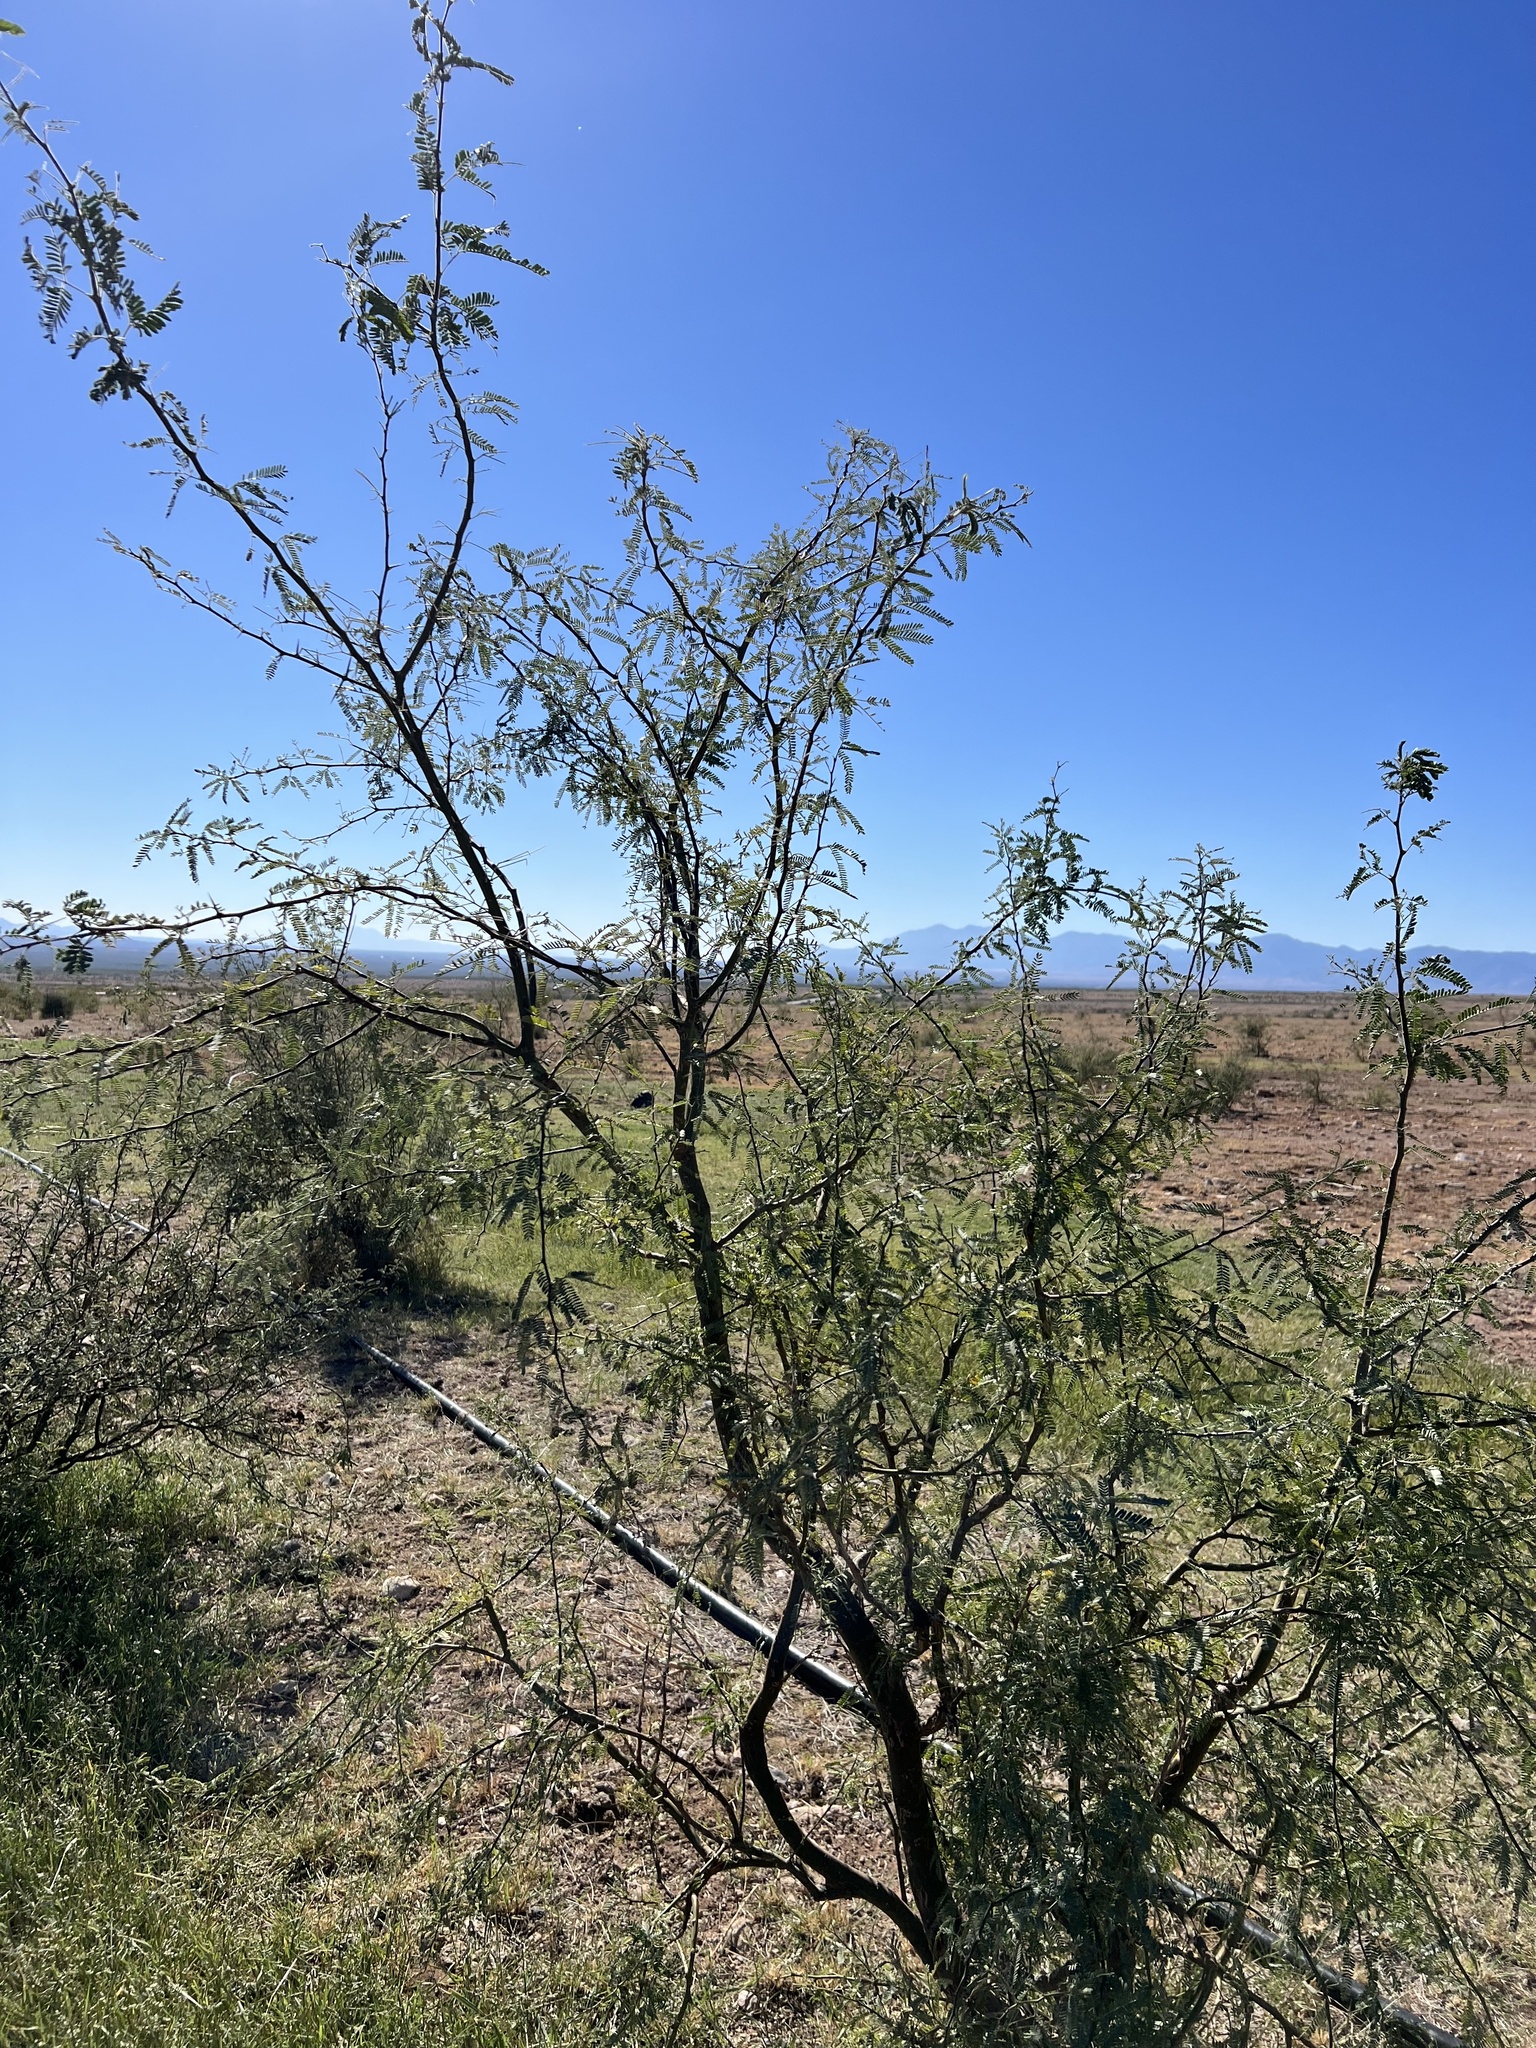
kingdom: Plantae
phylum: Tracheophyta
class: Magnoliopsida
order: Fabales
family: Fabaceae
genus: Prosopis
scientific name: Prosopis velutina
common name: Velvet mesquite
